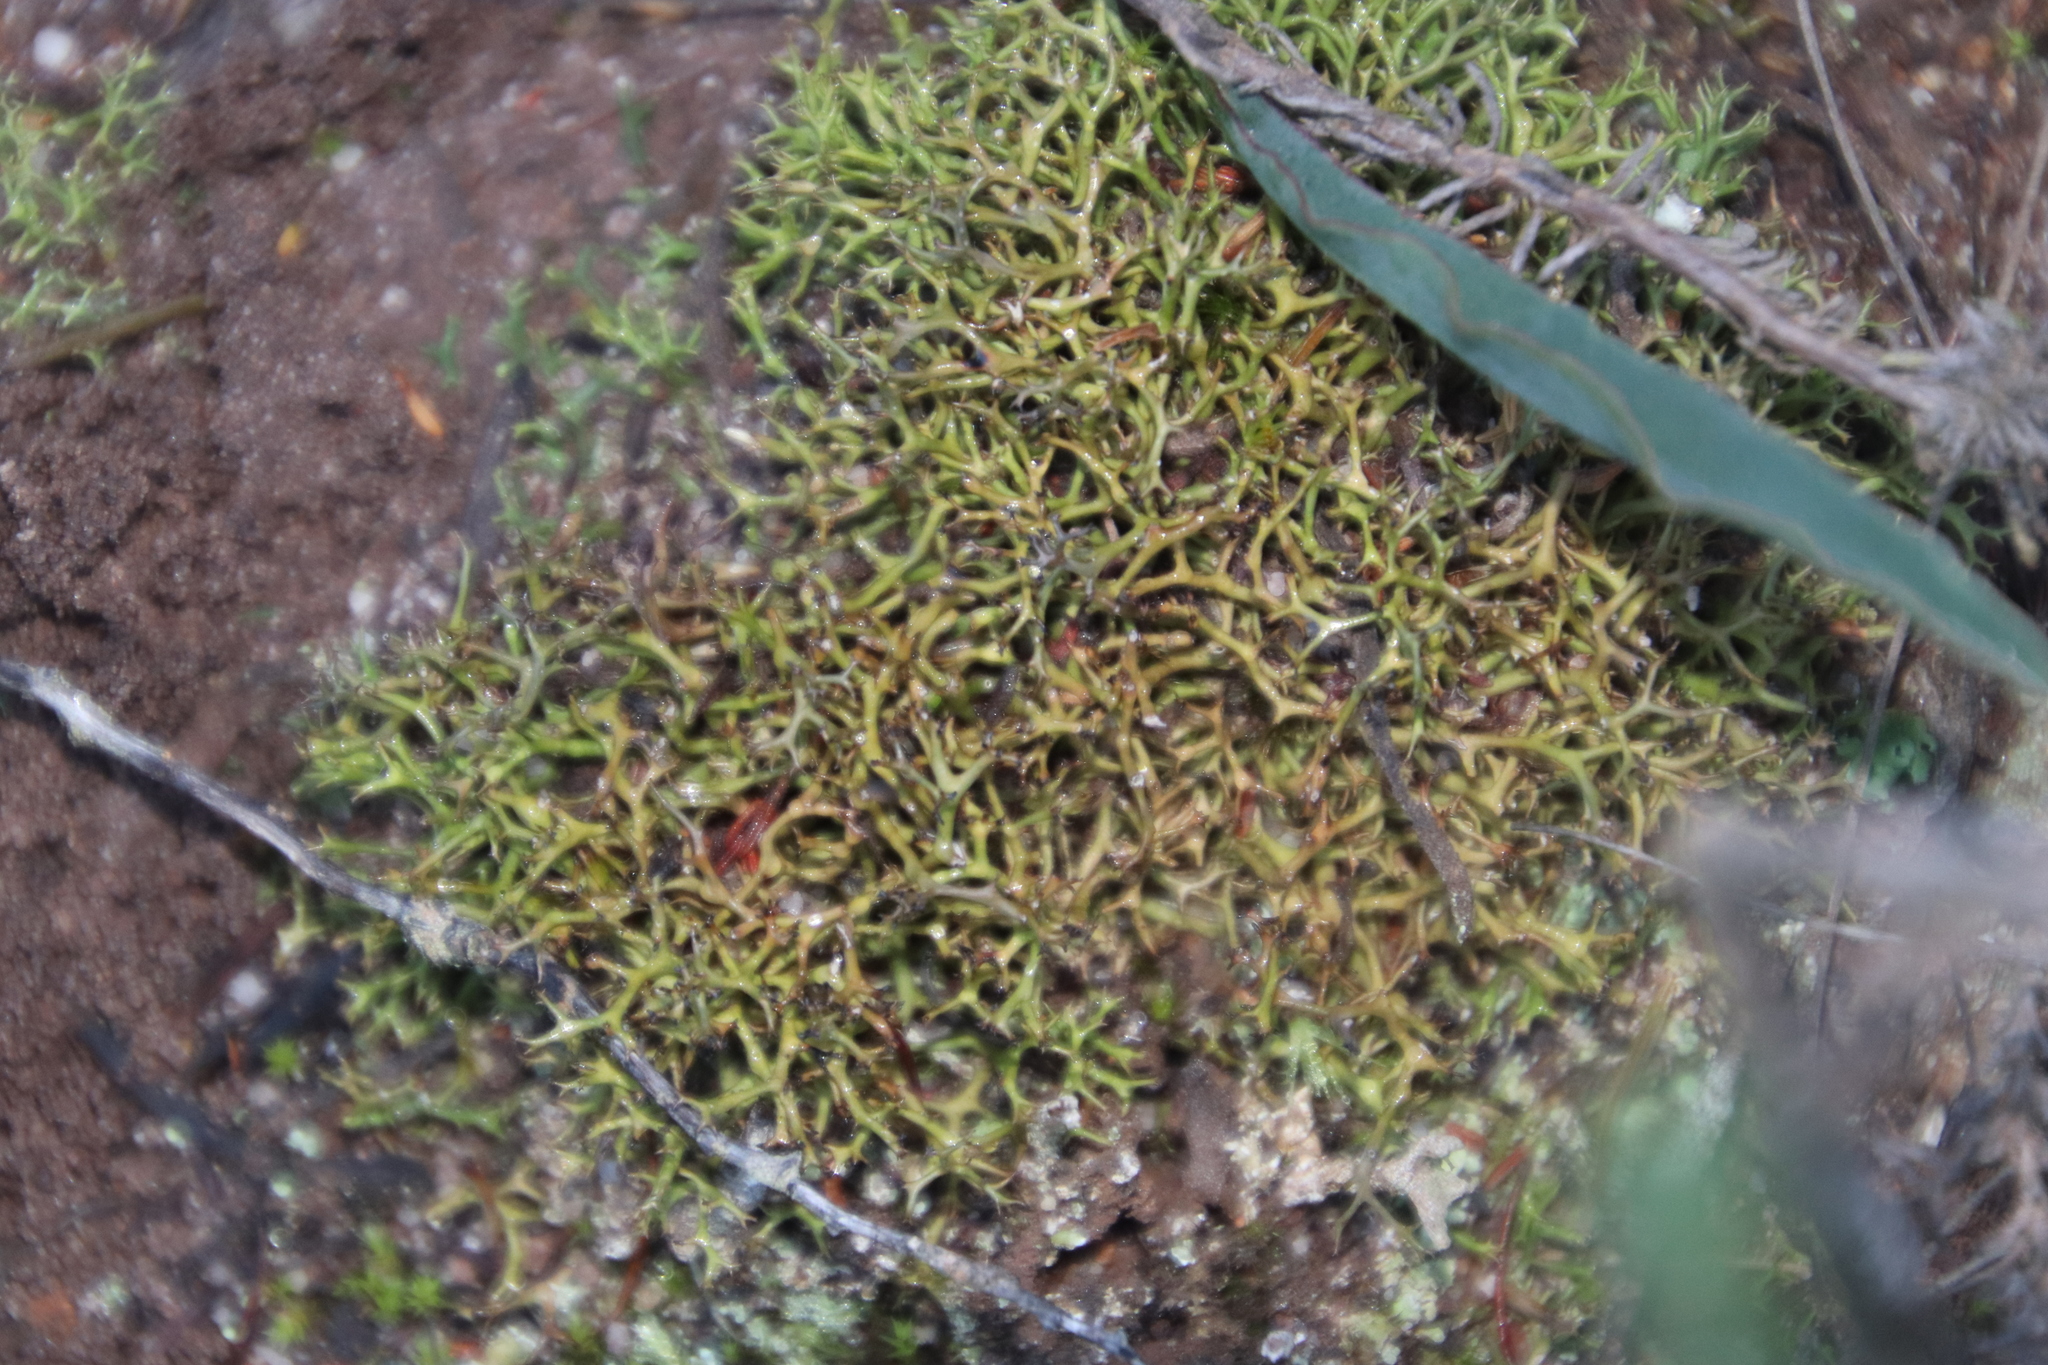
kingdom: Fungi
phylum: Ascomycota
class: Lecanoromycetes
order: Lecanorales
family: Cladoniaceae
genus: Cladia
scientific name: Cladia aggregata
